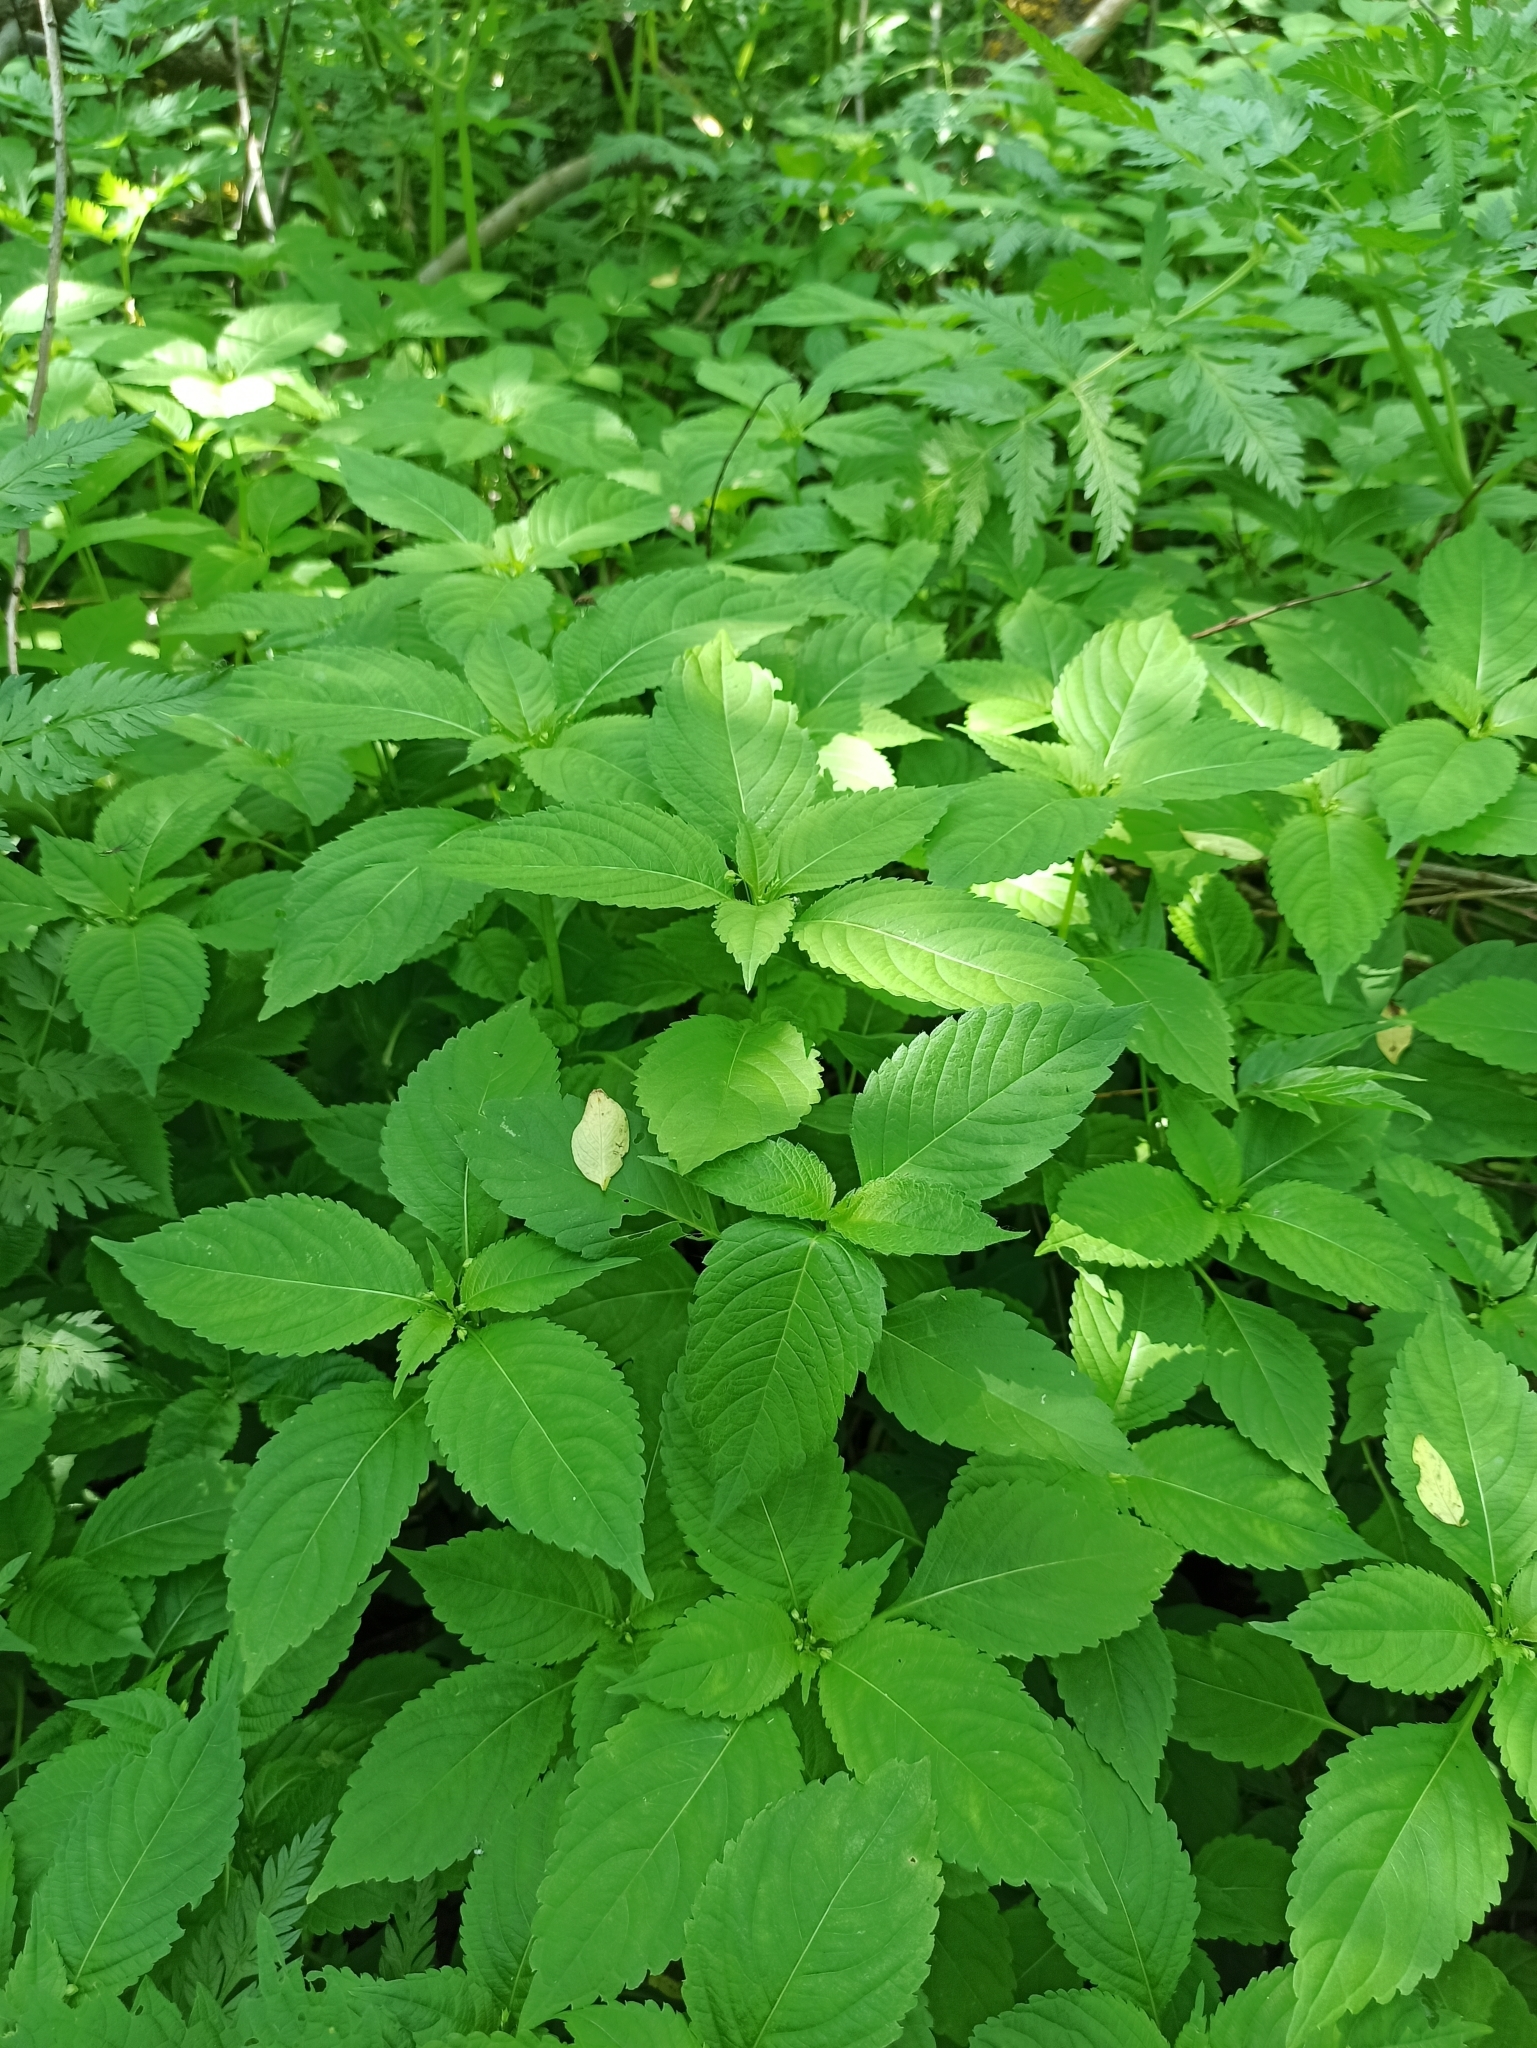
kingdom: Plantae
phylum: Tracheophyta
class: Magnoliopsida
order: Ericales
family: Balsaminaceae
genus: Impatiens
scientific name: Impatiens parviflora
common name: Small balsam
